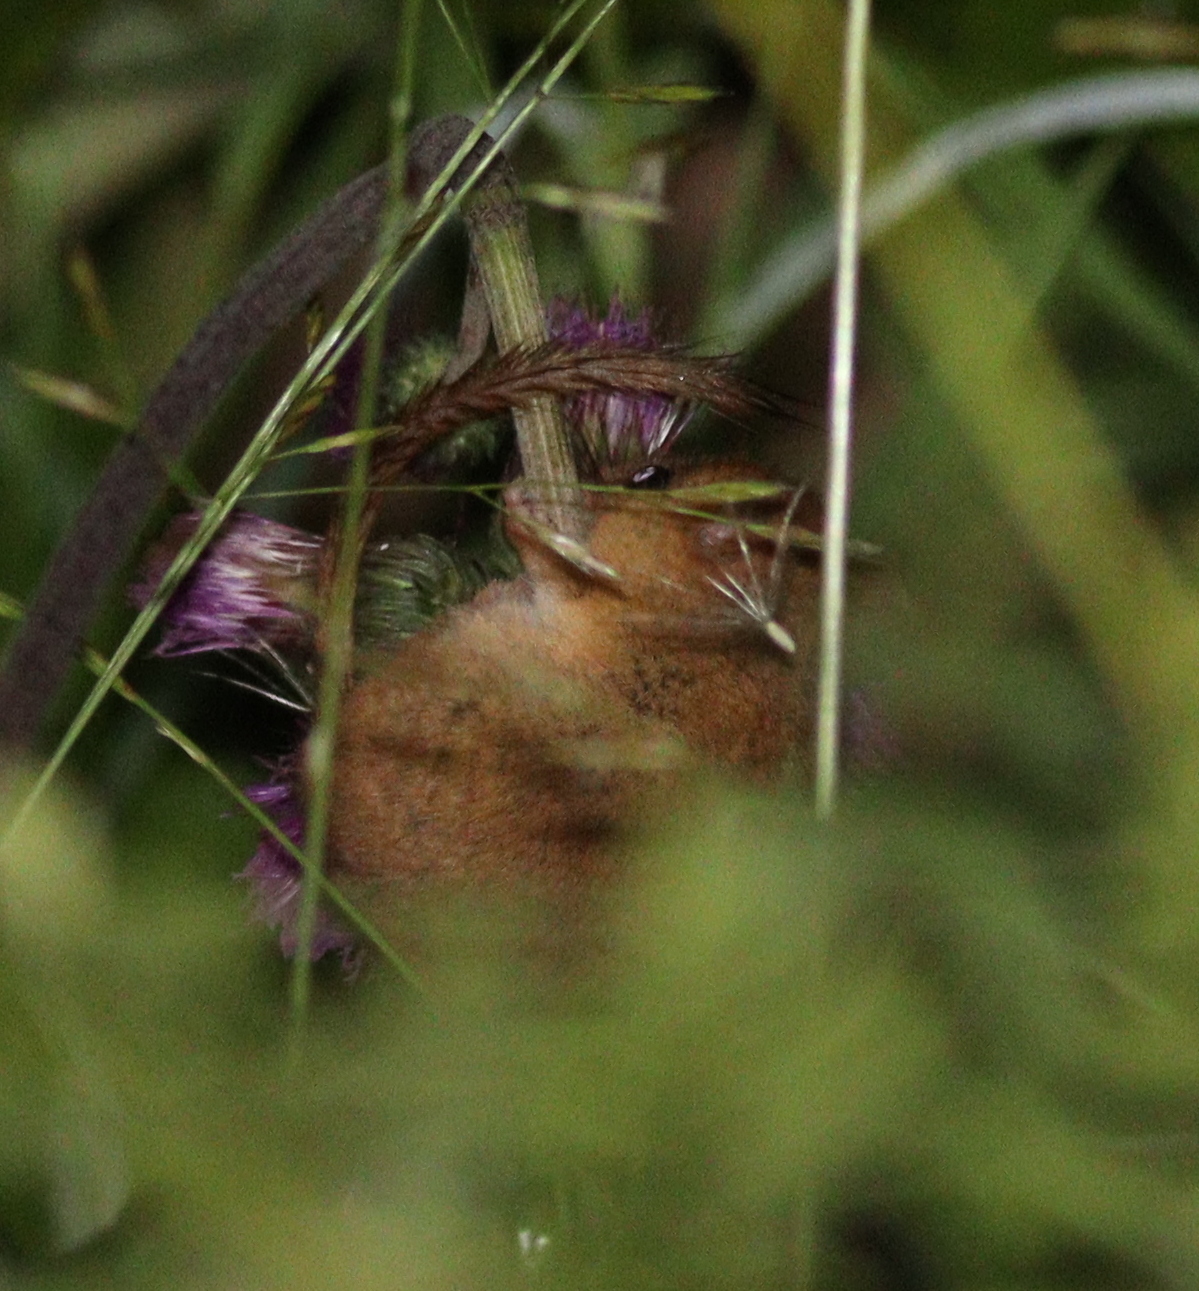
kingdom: Animalia
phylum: Chordata
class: Mammalia
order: Rodentia
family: Gliridae
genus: Muscardinus
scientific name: Muscardinus avellanarius
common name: Hazel dormouse
